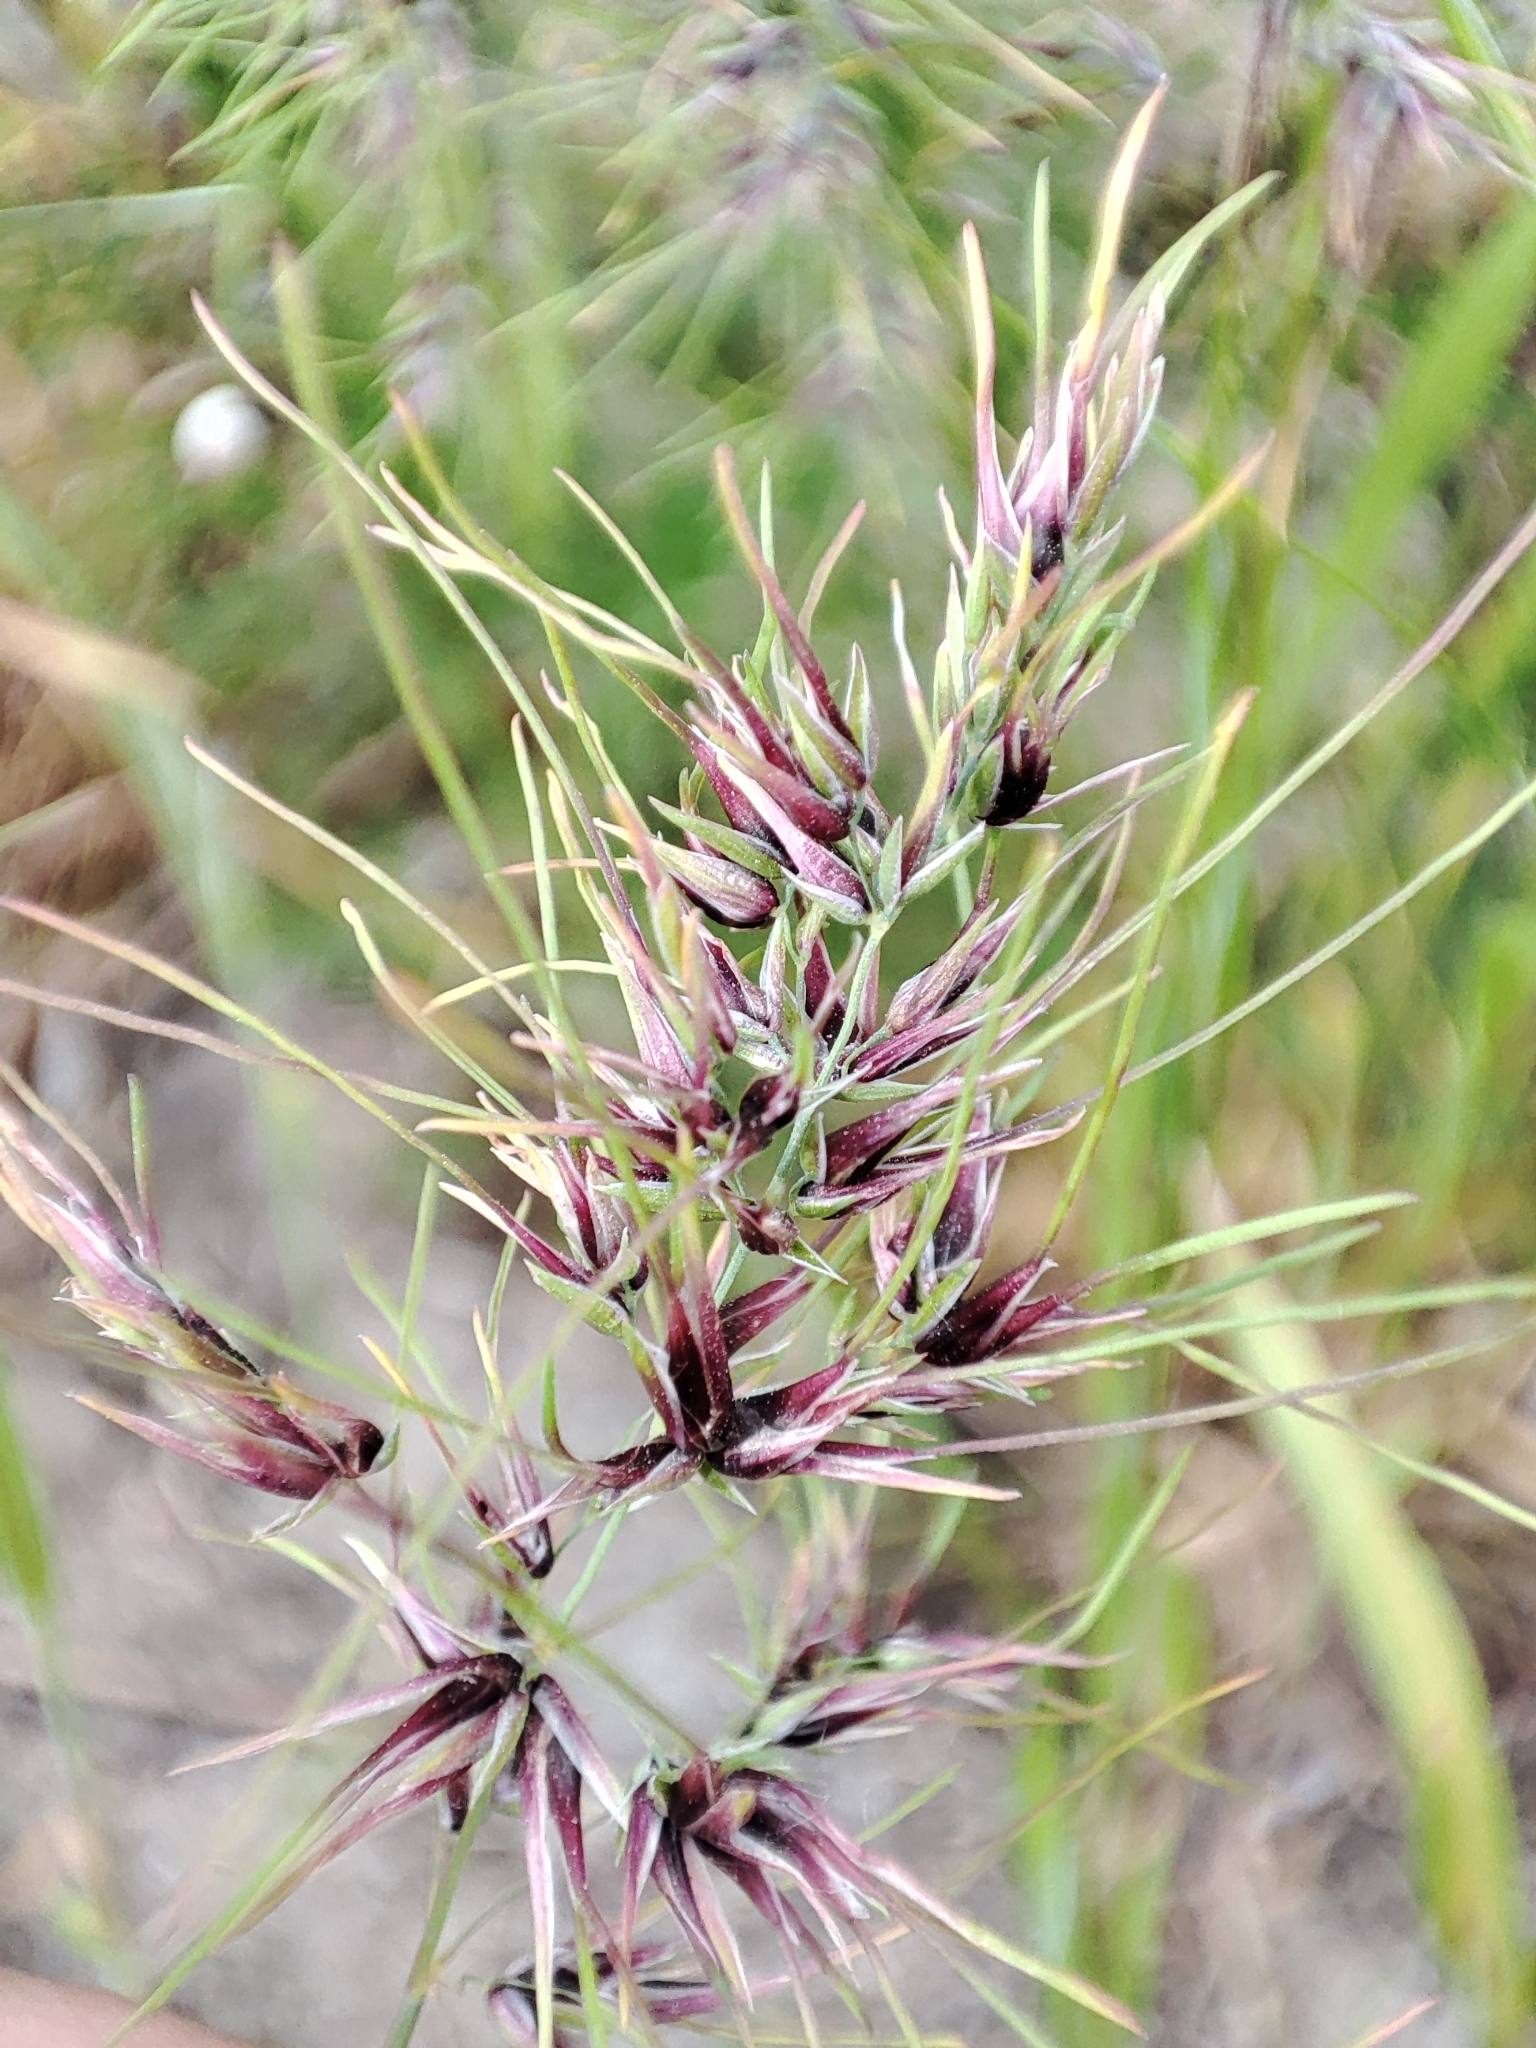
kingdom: Plantae
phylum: Tracheophyta
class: Liliopsida
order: Poales
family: Poaceae
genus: Poa
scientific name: Poa bulbosa
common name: Bulbous bluegrass
